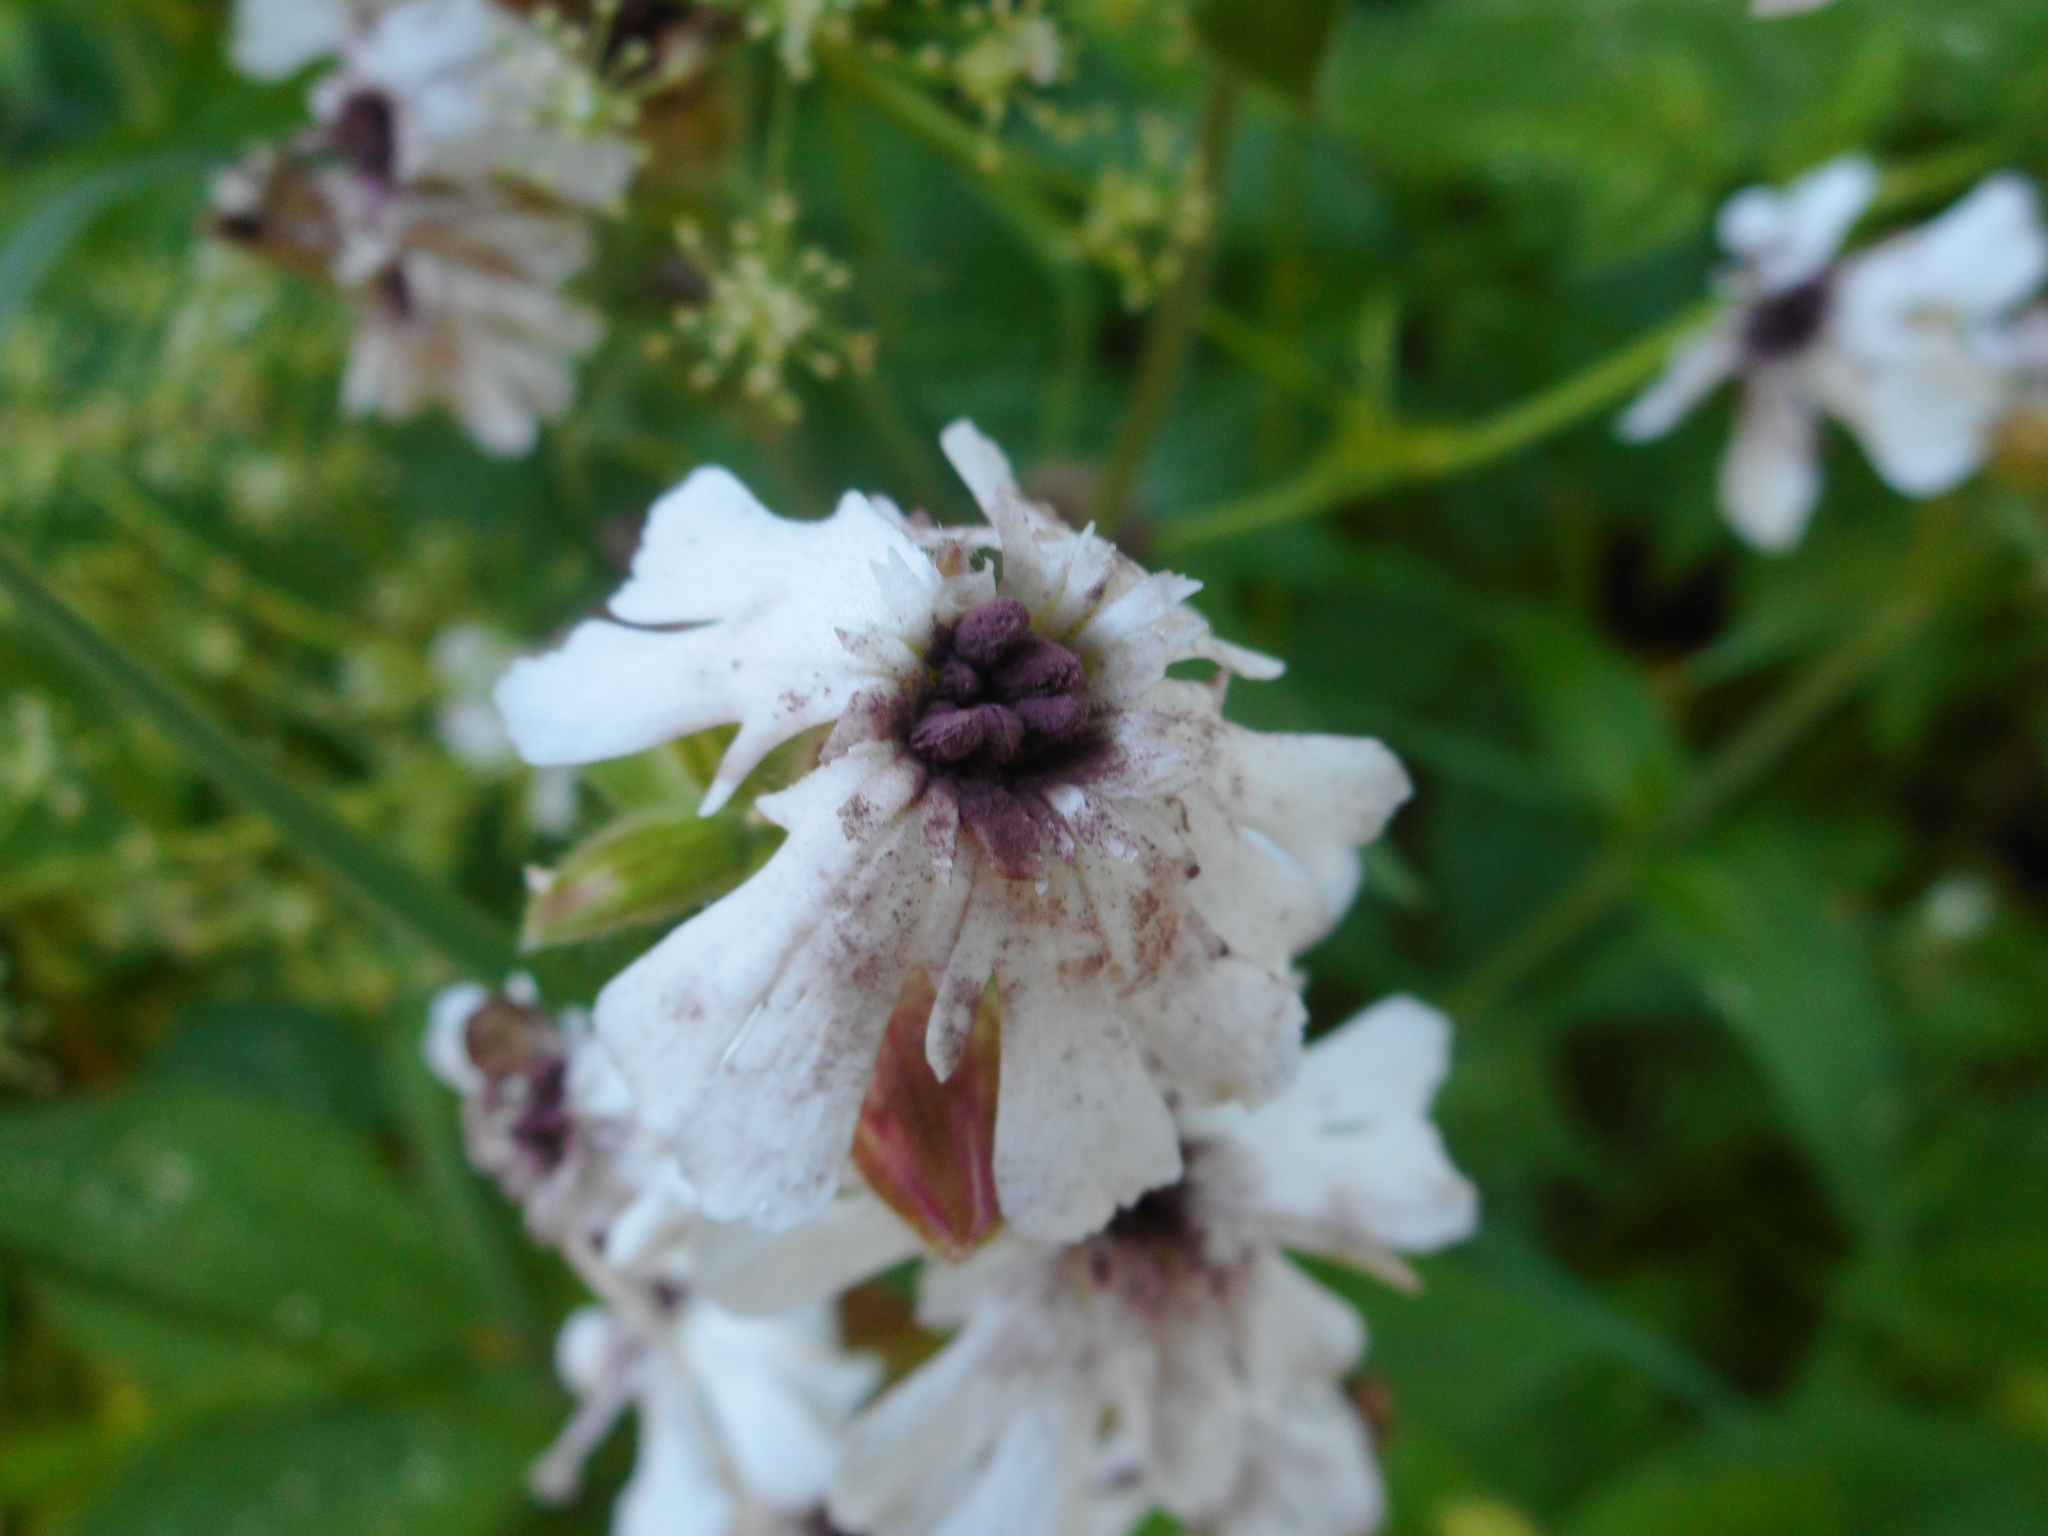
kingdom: Fungi
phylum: Basidiomycota
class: Microbotryomycetes
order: Microbotryales
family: Microbotryaceae
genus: Microbotryum
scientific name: Microbotryum lychnidis-dioicae
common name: Campion anther smut
